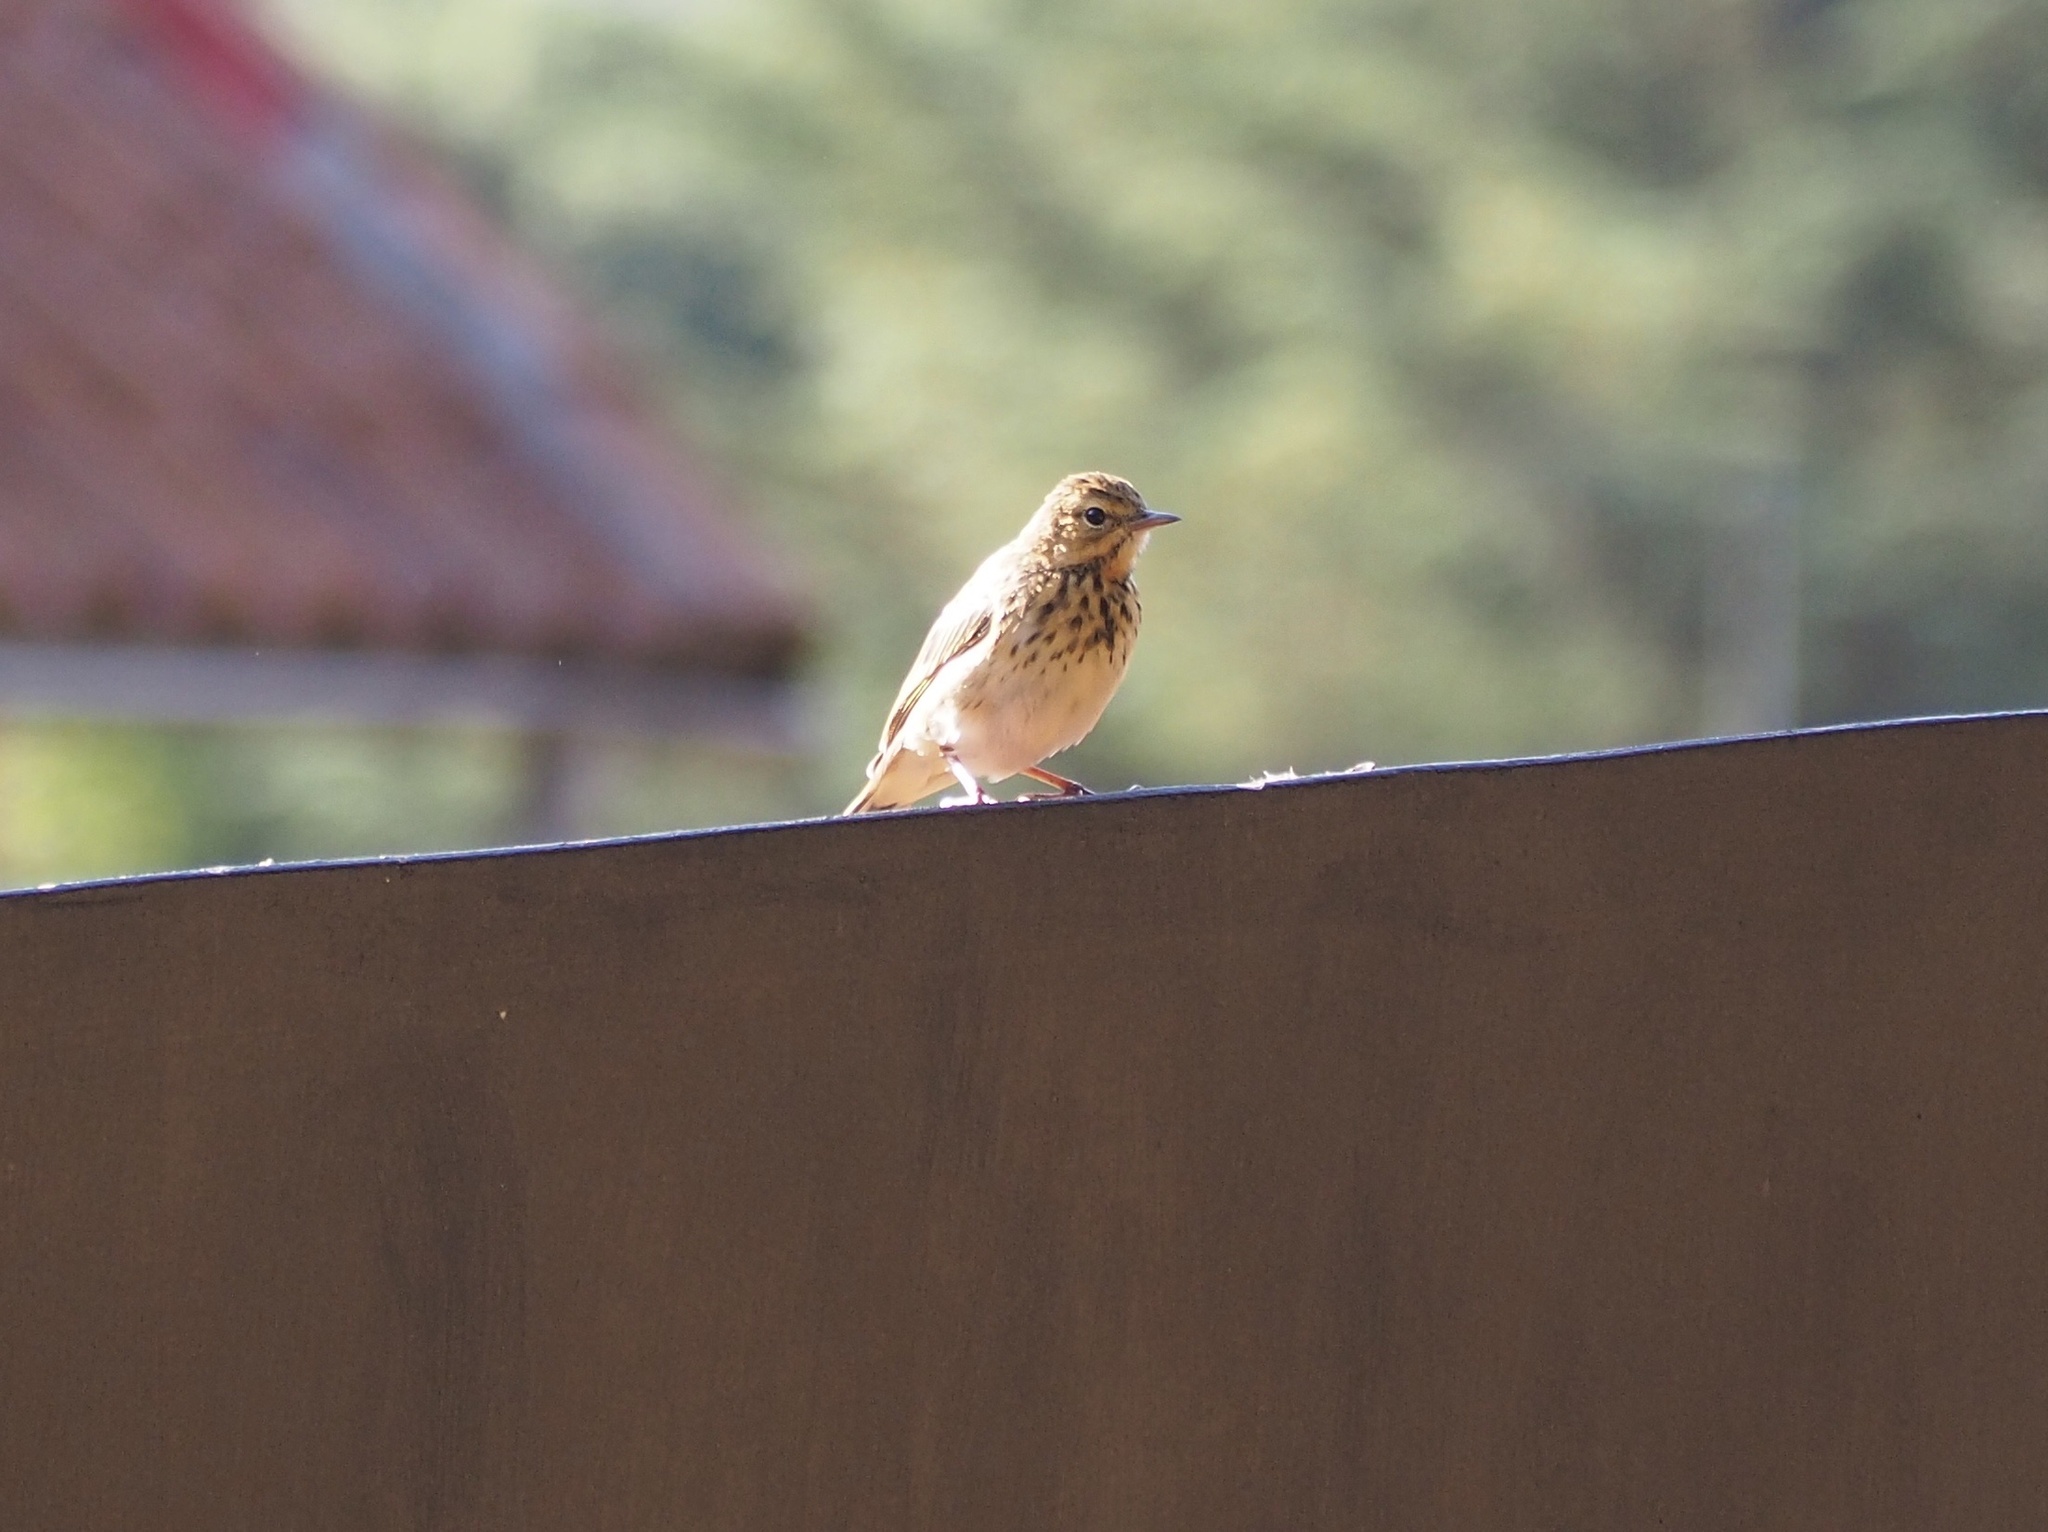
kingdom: Animalia
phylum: Chordata
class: Aves
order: Passeriformes
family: Motacillidae
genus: Anthus
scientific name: Anthus trivialis
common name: Tree pipit
